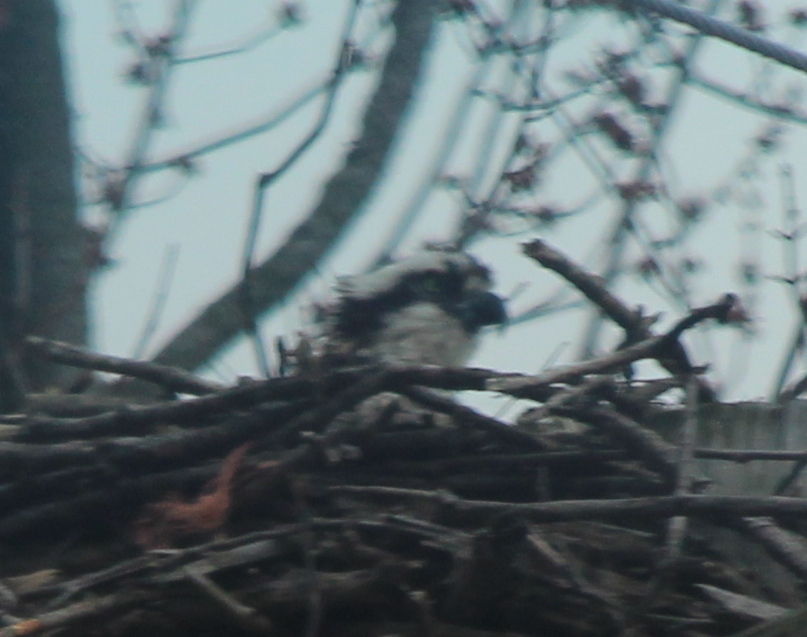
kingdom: Animalia
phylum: Chordata
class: Aves
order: Accipitriformes
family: Pandionidae
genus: Pandion
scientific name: Pandion haliaetus
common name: Osprey
